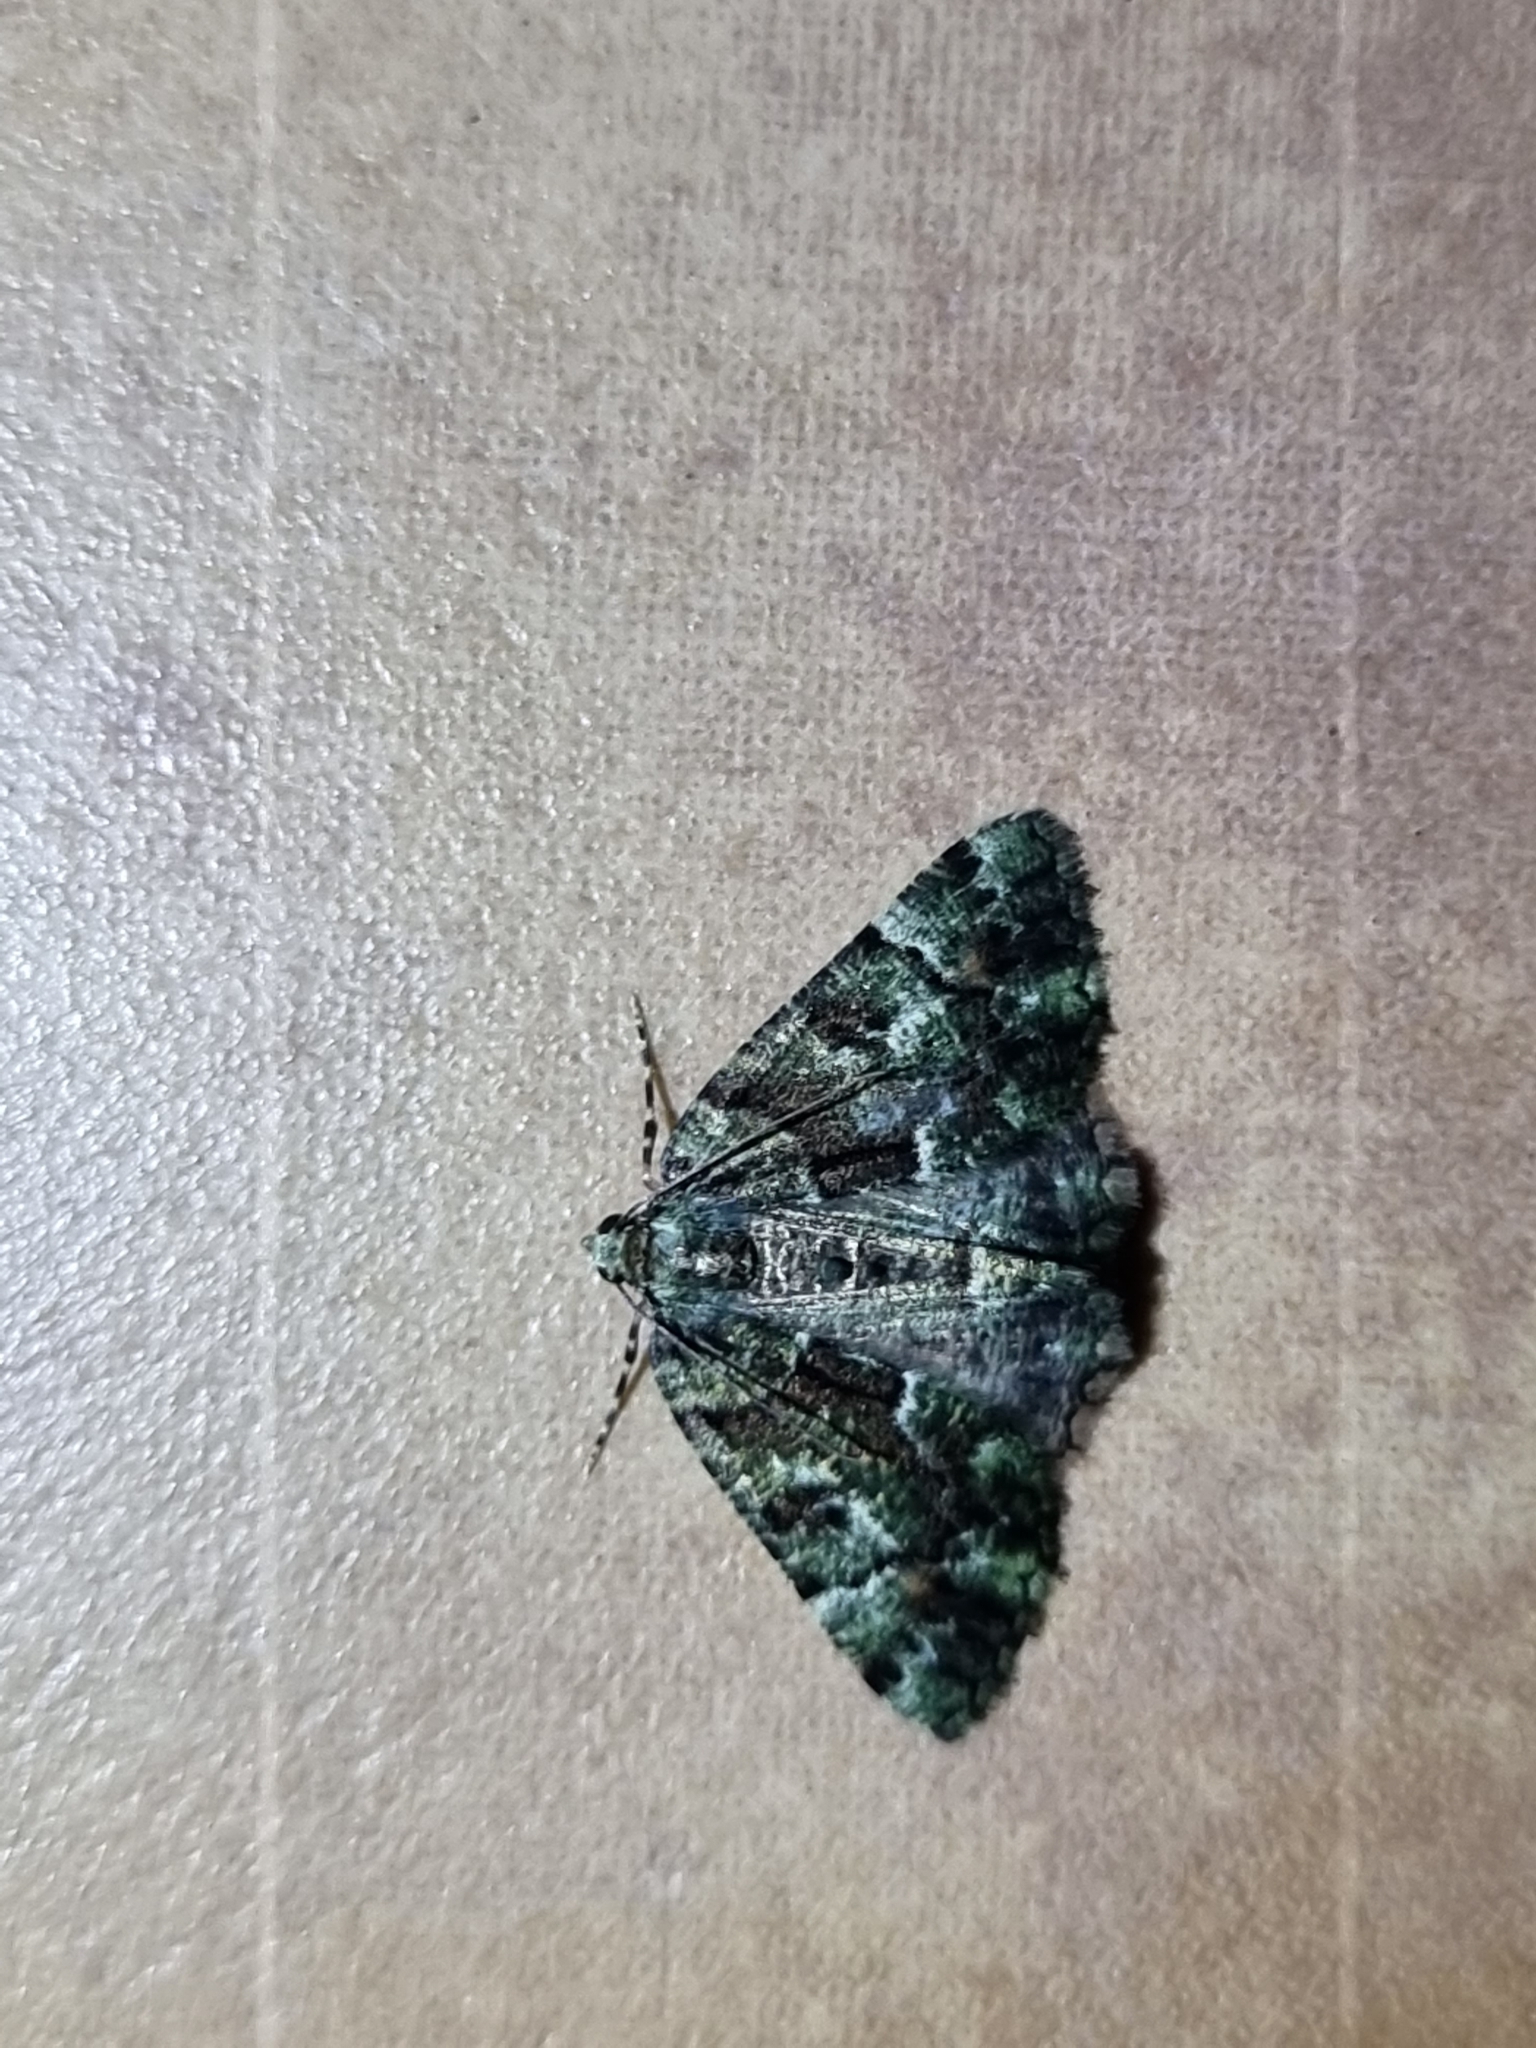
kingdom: Animalia
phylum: Arthropoda
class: Insecta
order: Lepidoptera
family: Geometridae
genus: Aeolochroma
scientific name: Aeolochroma metarhodata
